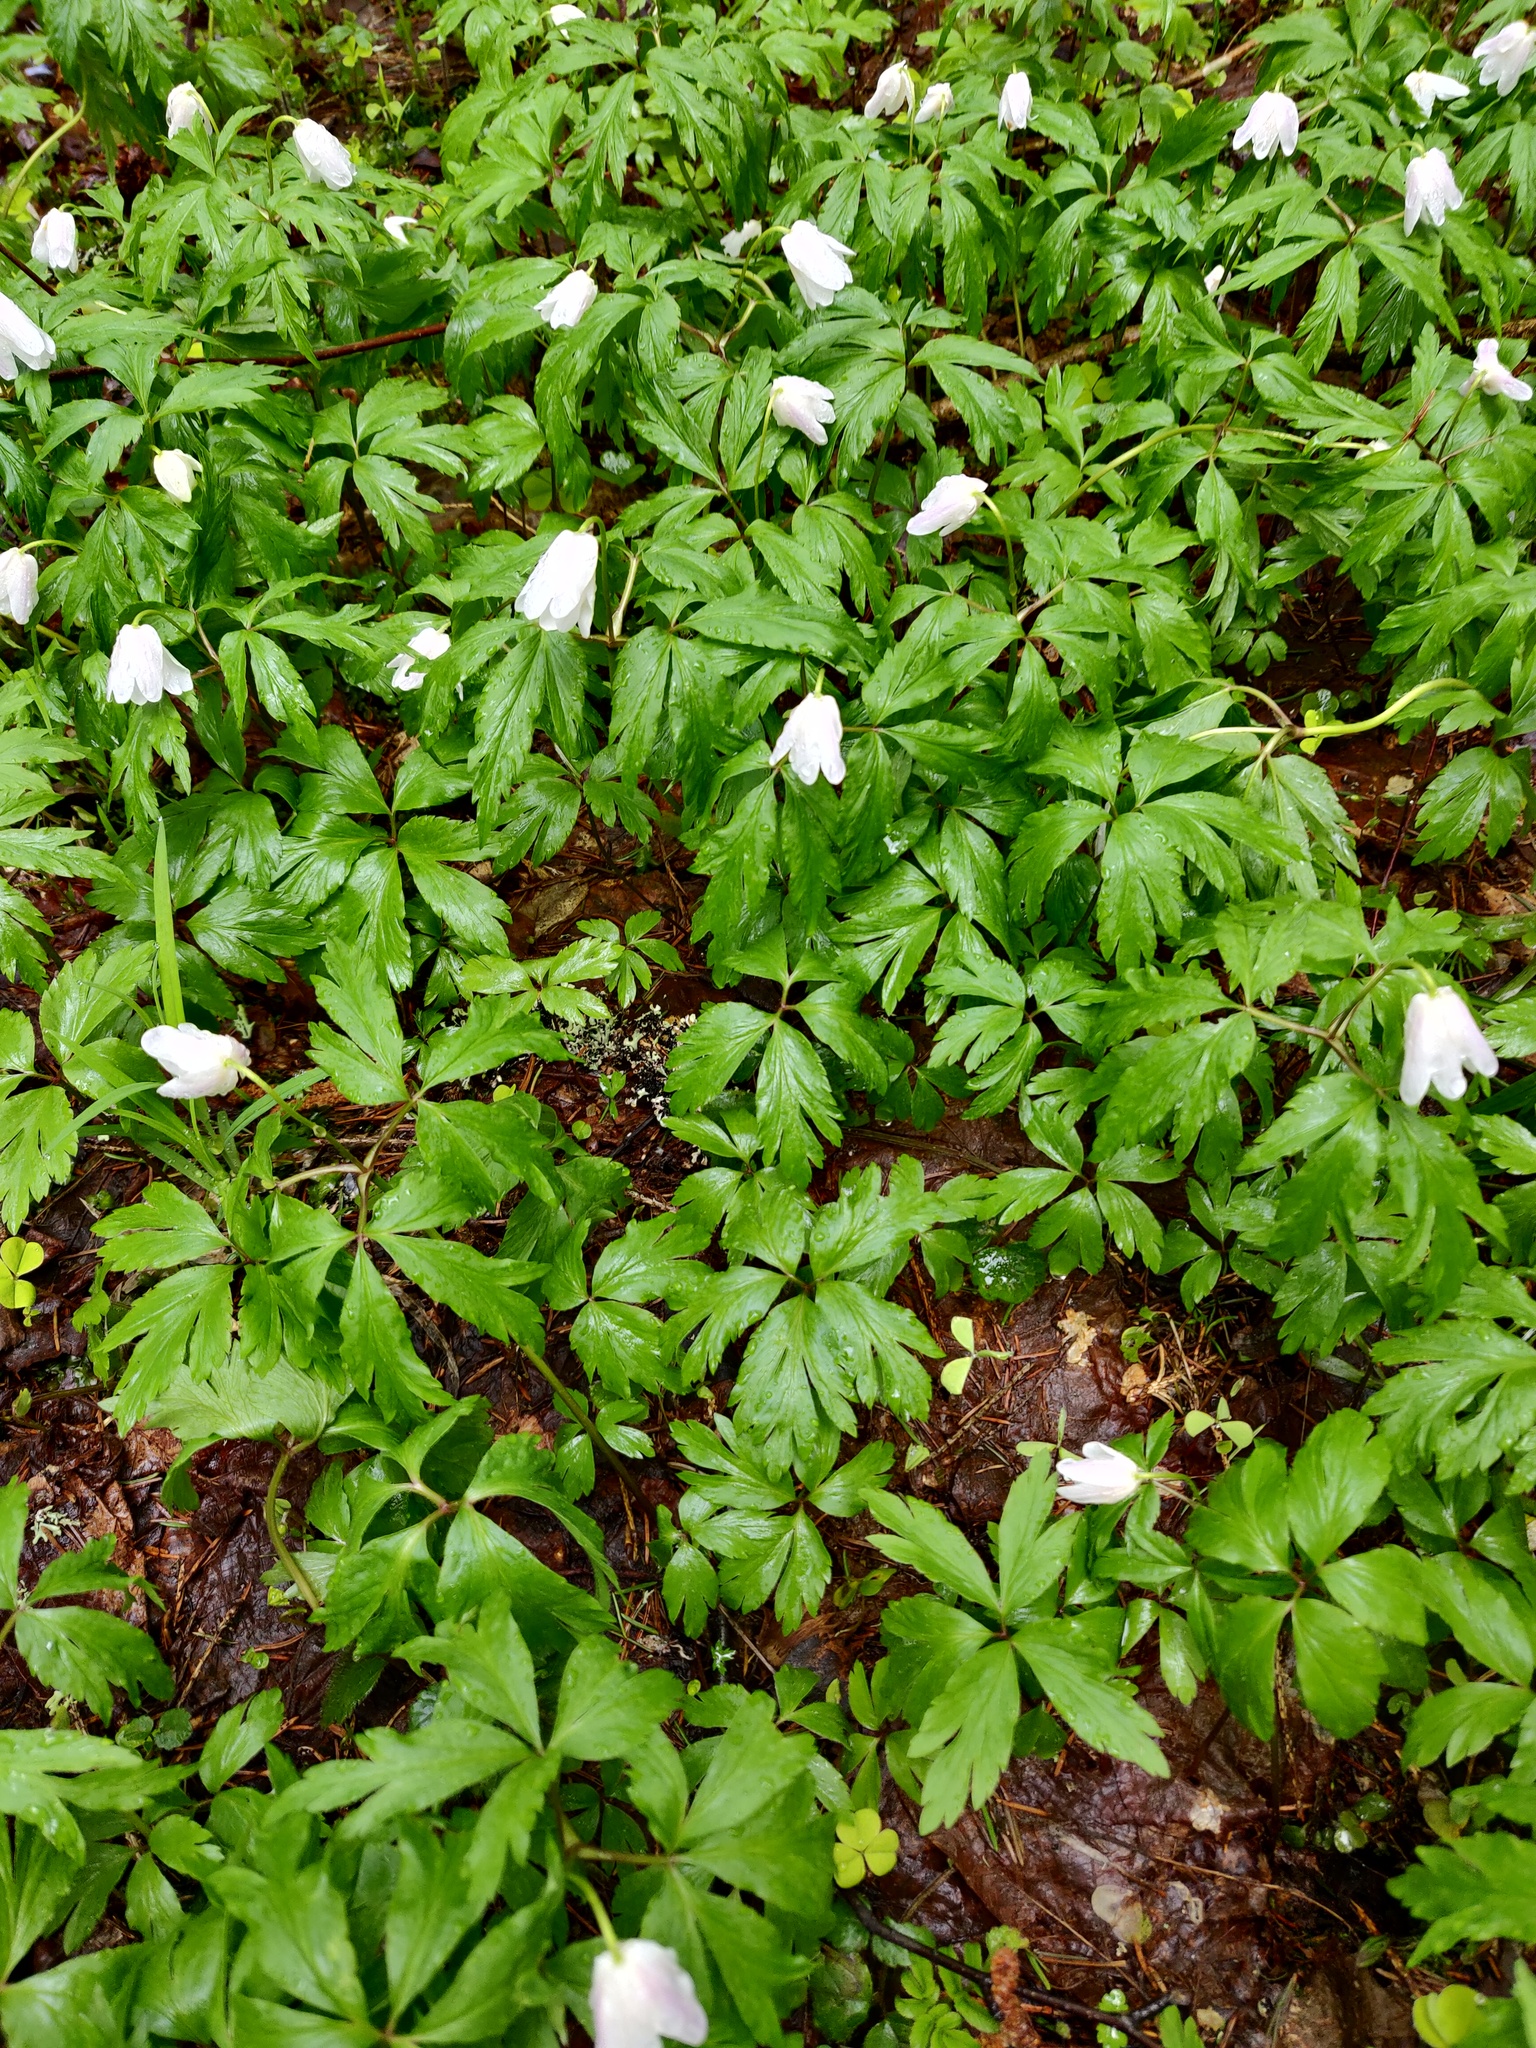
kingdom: Plantae
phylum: Tracheophyta
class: Magnoliopsida
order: Ranunculales
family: Ranunculaceae
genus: Anemone
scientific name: Anemone nemorosa
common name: Wood anemone
